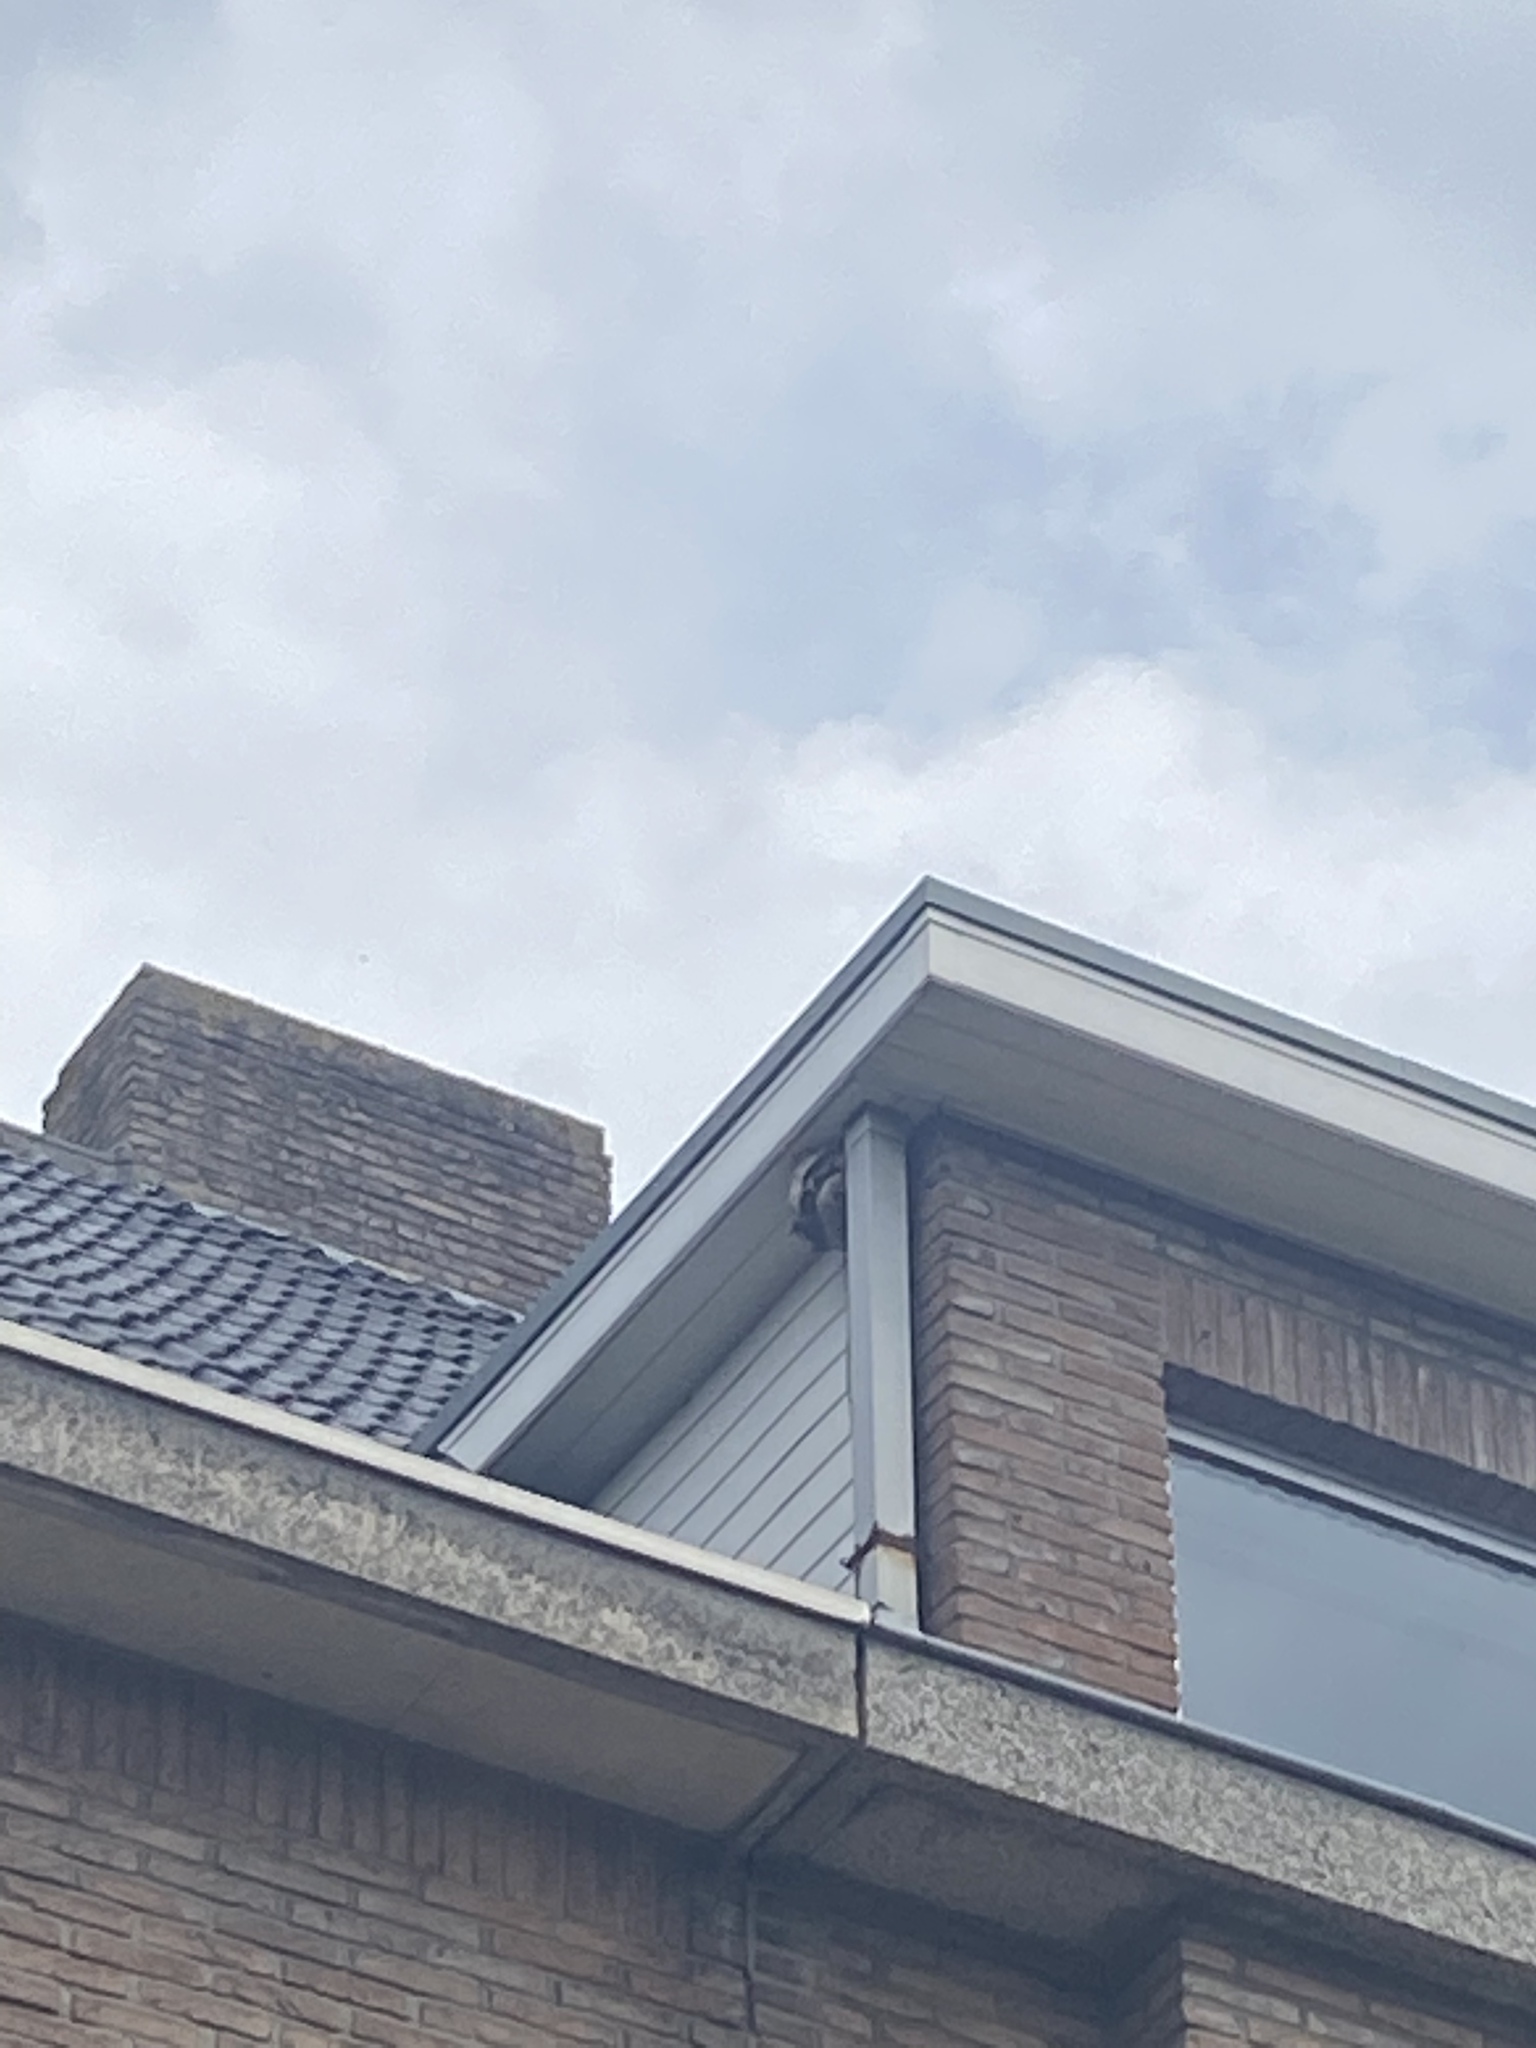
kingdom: Animalia
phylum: Arthropoda
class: Insecta
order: Hymenoptera
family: Vespidae
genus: Vespa
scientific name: Vespa velutina
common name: Asian hornet
